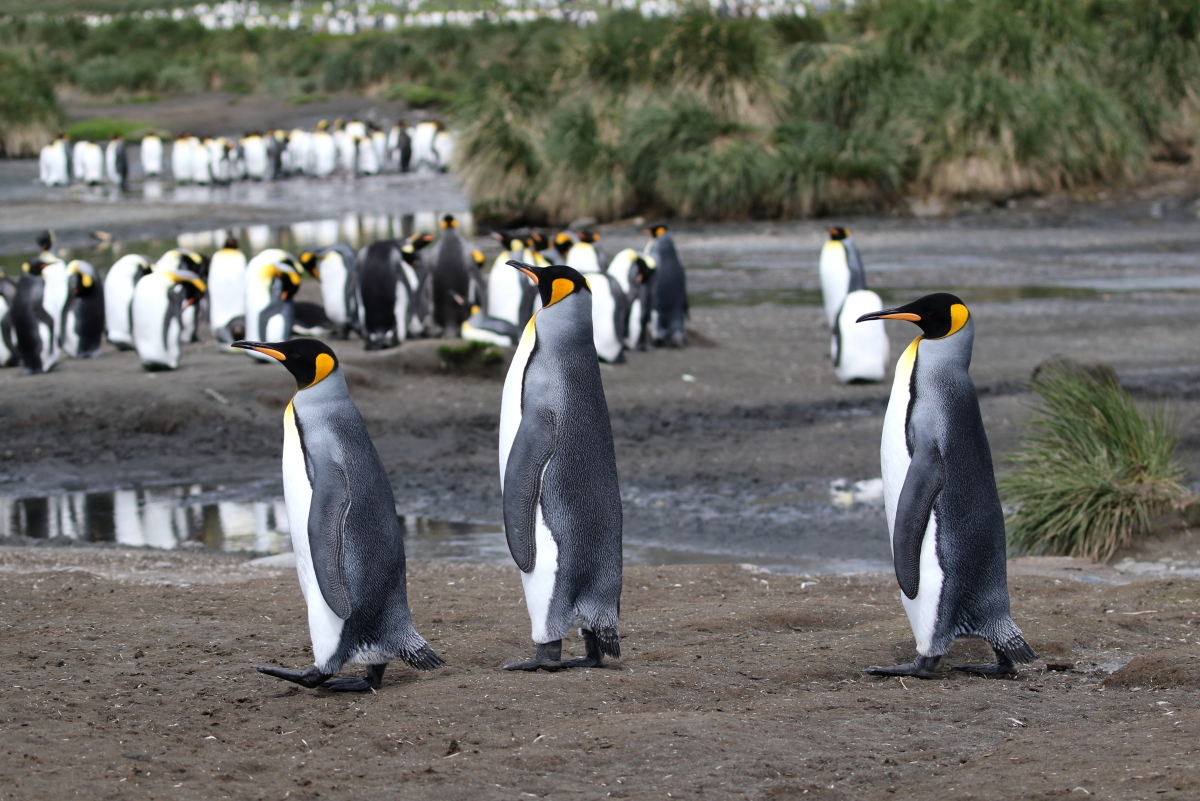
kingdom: Animalia
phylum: Chordata
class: Aves
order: Sphenisciformes
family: Spheniscidae
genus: Aptenodytes
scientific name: Aptenodytes patagonicus
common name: King penguin
